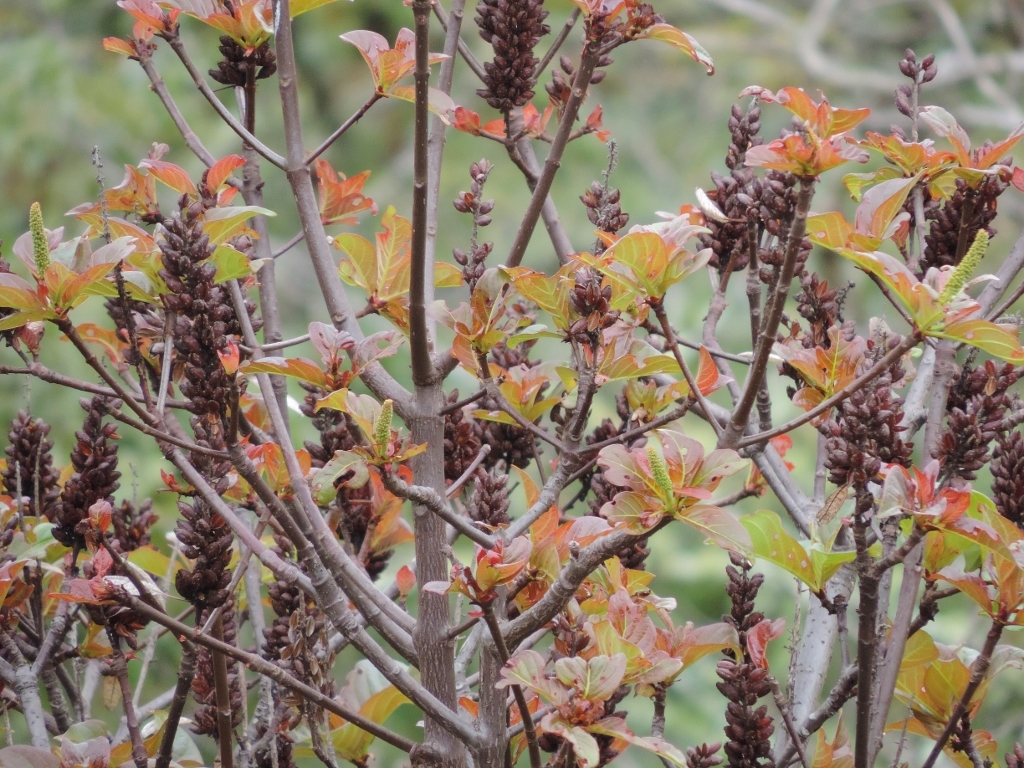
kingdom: Plantae
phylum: Tracheophyta
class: Magnoliopsida
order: Gentianales
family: Rubiaceae
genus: Hymenodictyon
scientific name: Hymenodictyon floribundum
